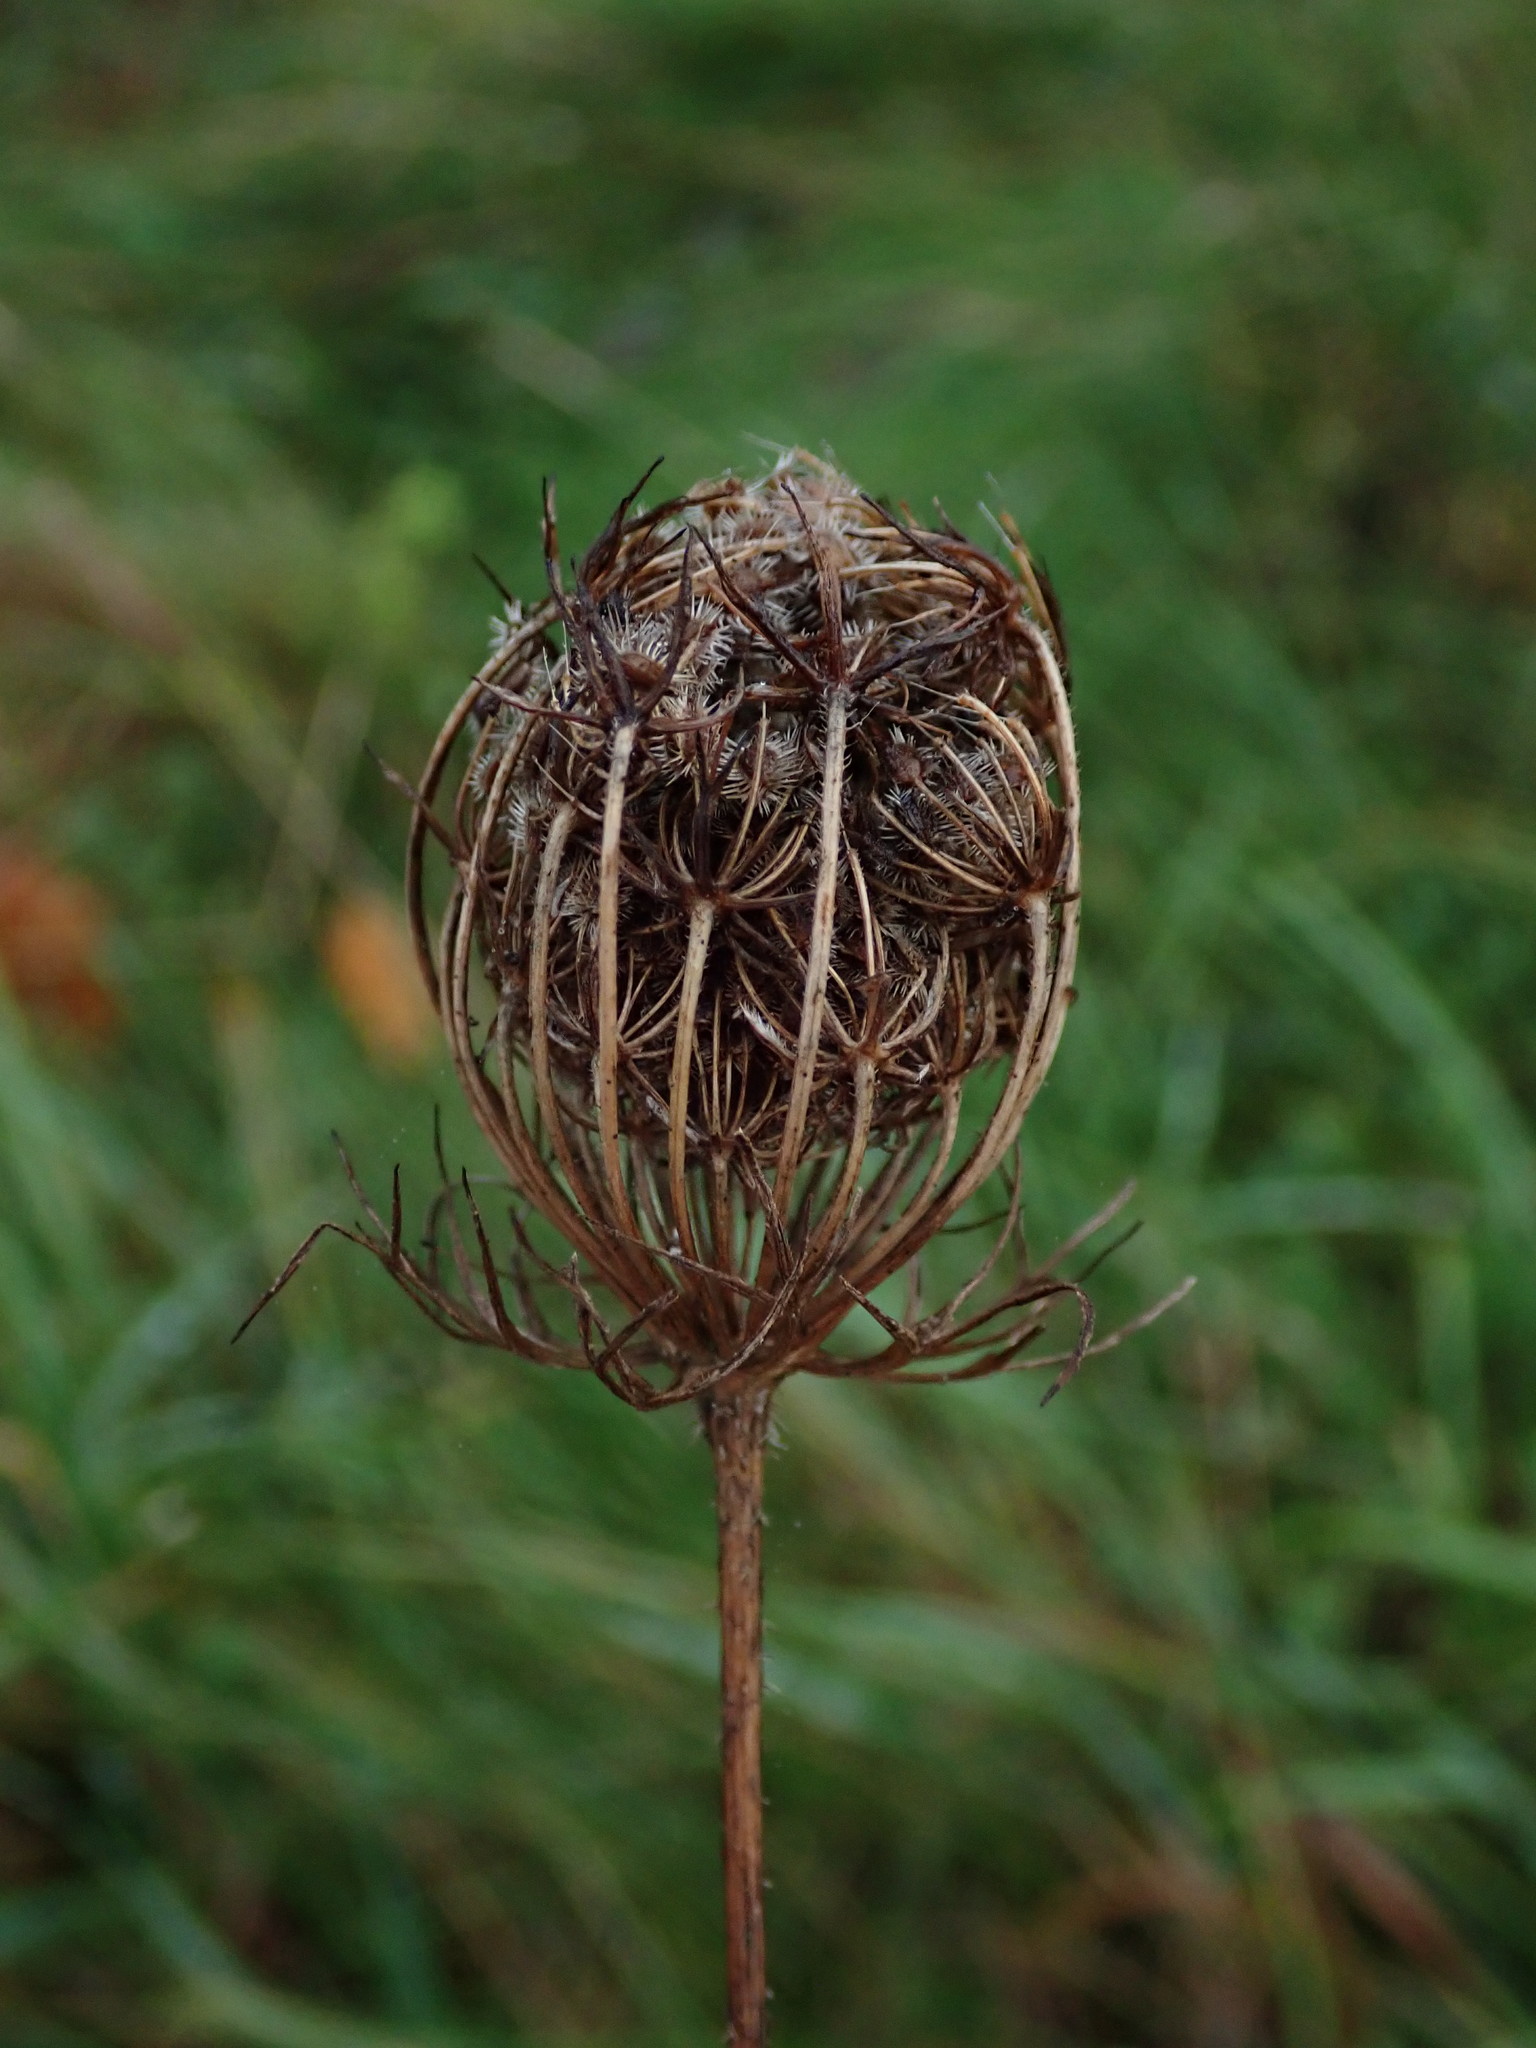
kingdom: Plantae
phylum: Tracheophyta
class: Magnoliopsida
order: Apiales
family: Apiaceae
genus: Daucus
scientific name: Daucus carota
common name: Wild carrot
